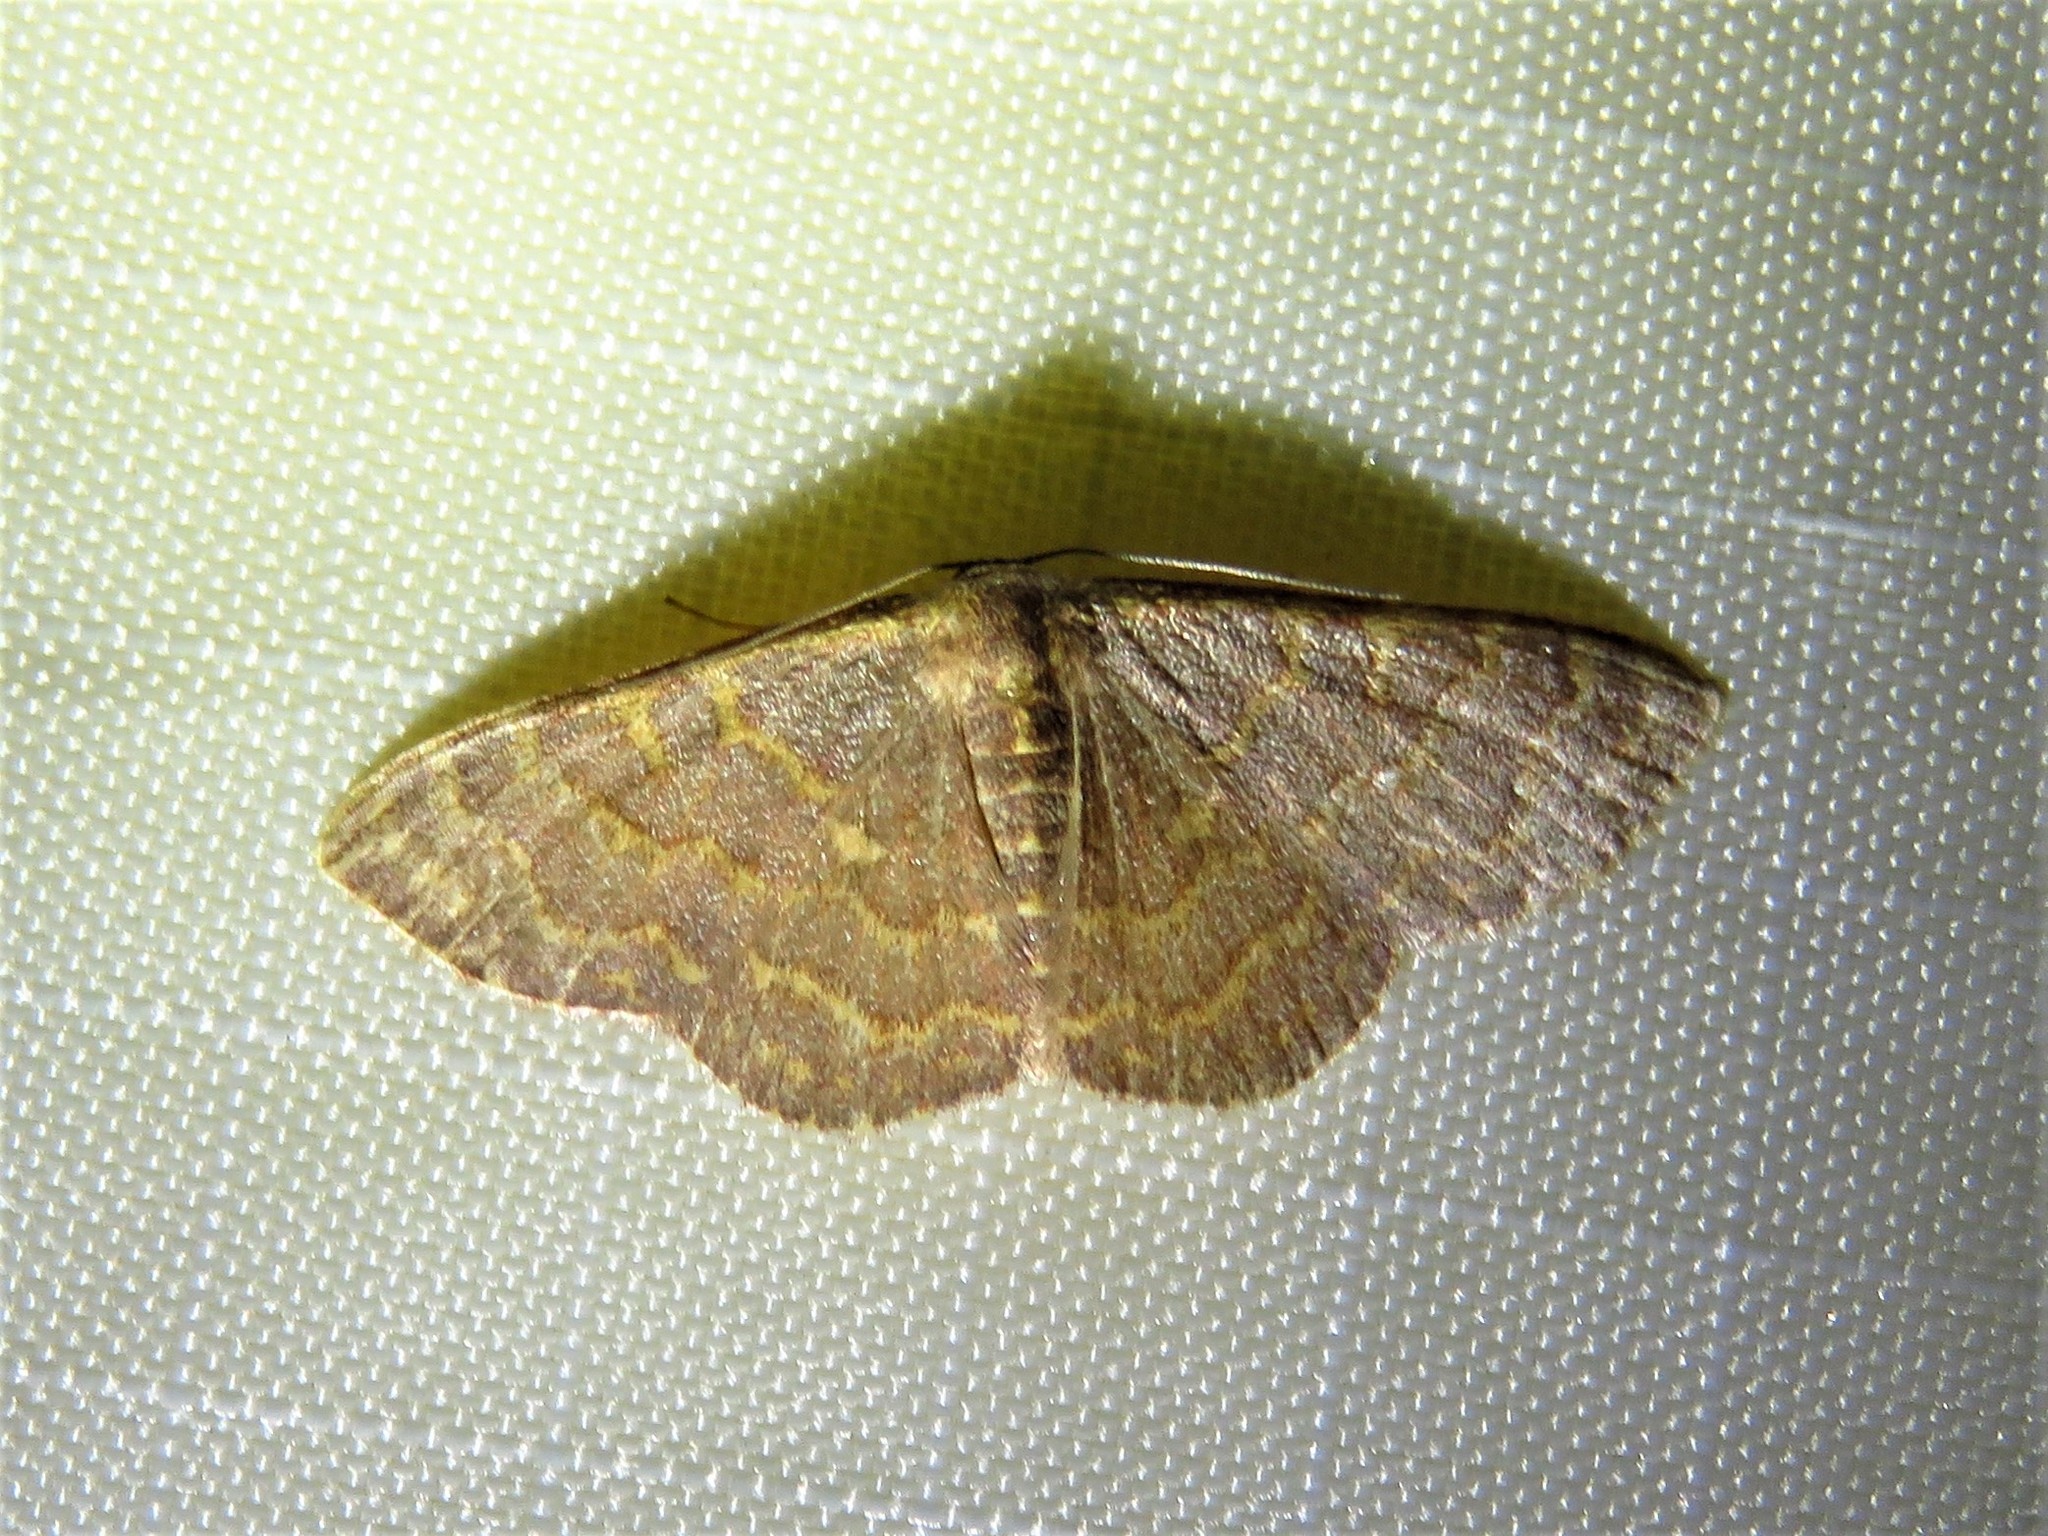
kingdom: Animalia
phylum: Arthropoda
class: Insecta
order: Lepidoptera
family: Geometridae
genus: Leptostales
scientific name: Leptostales pannaria
